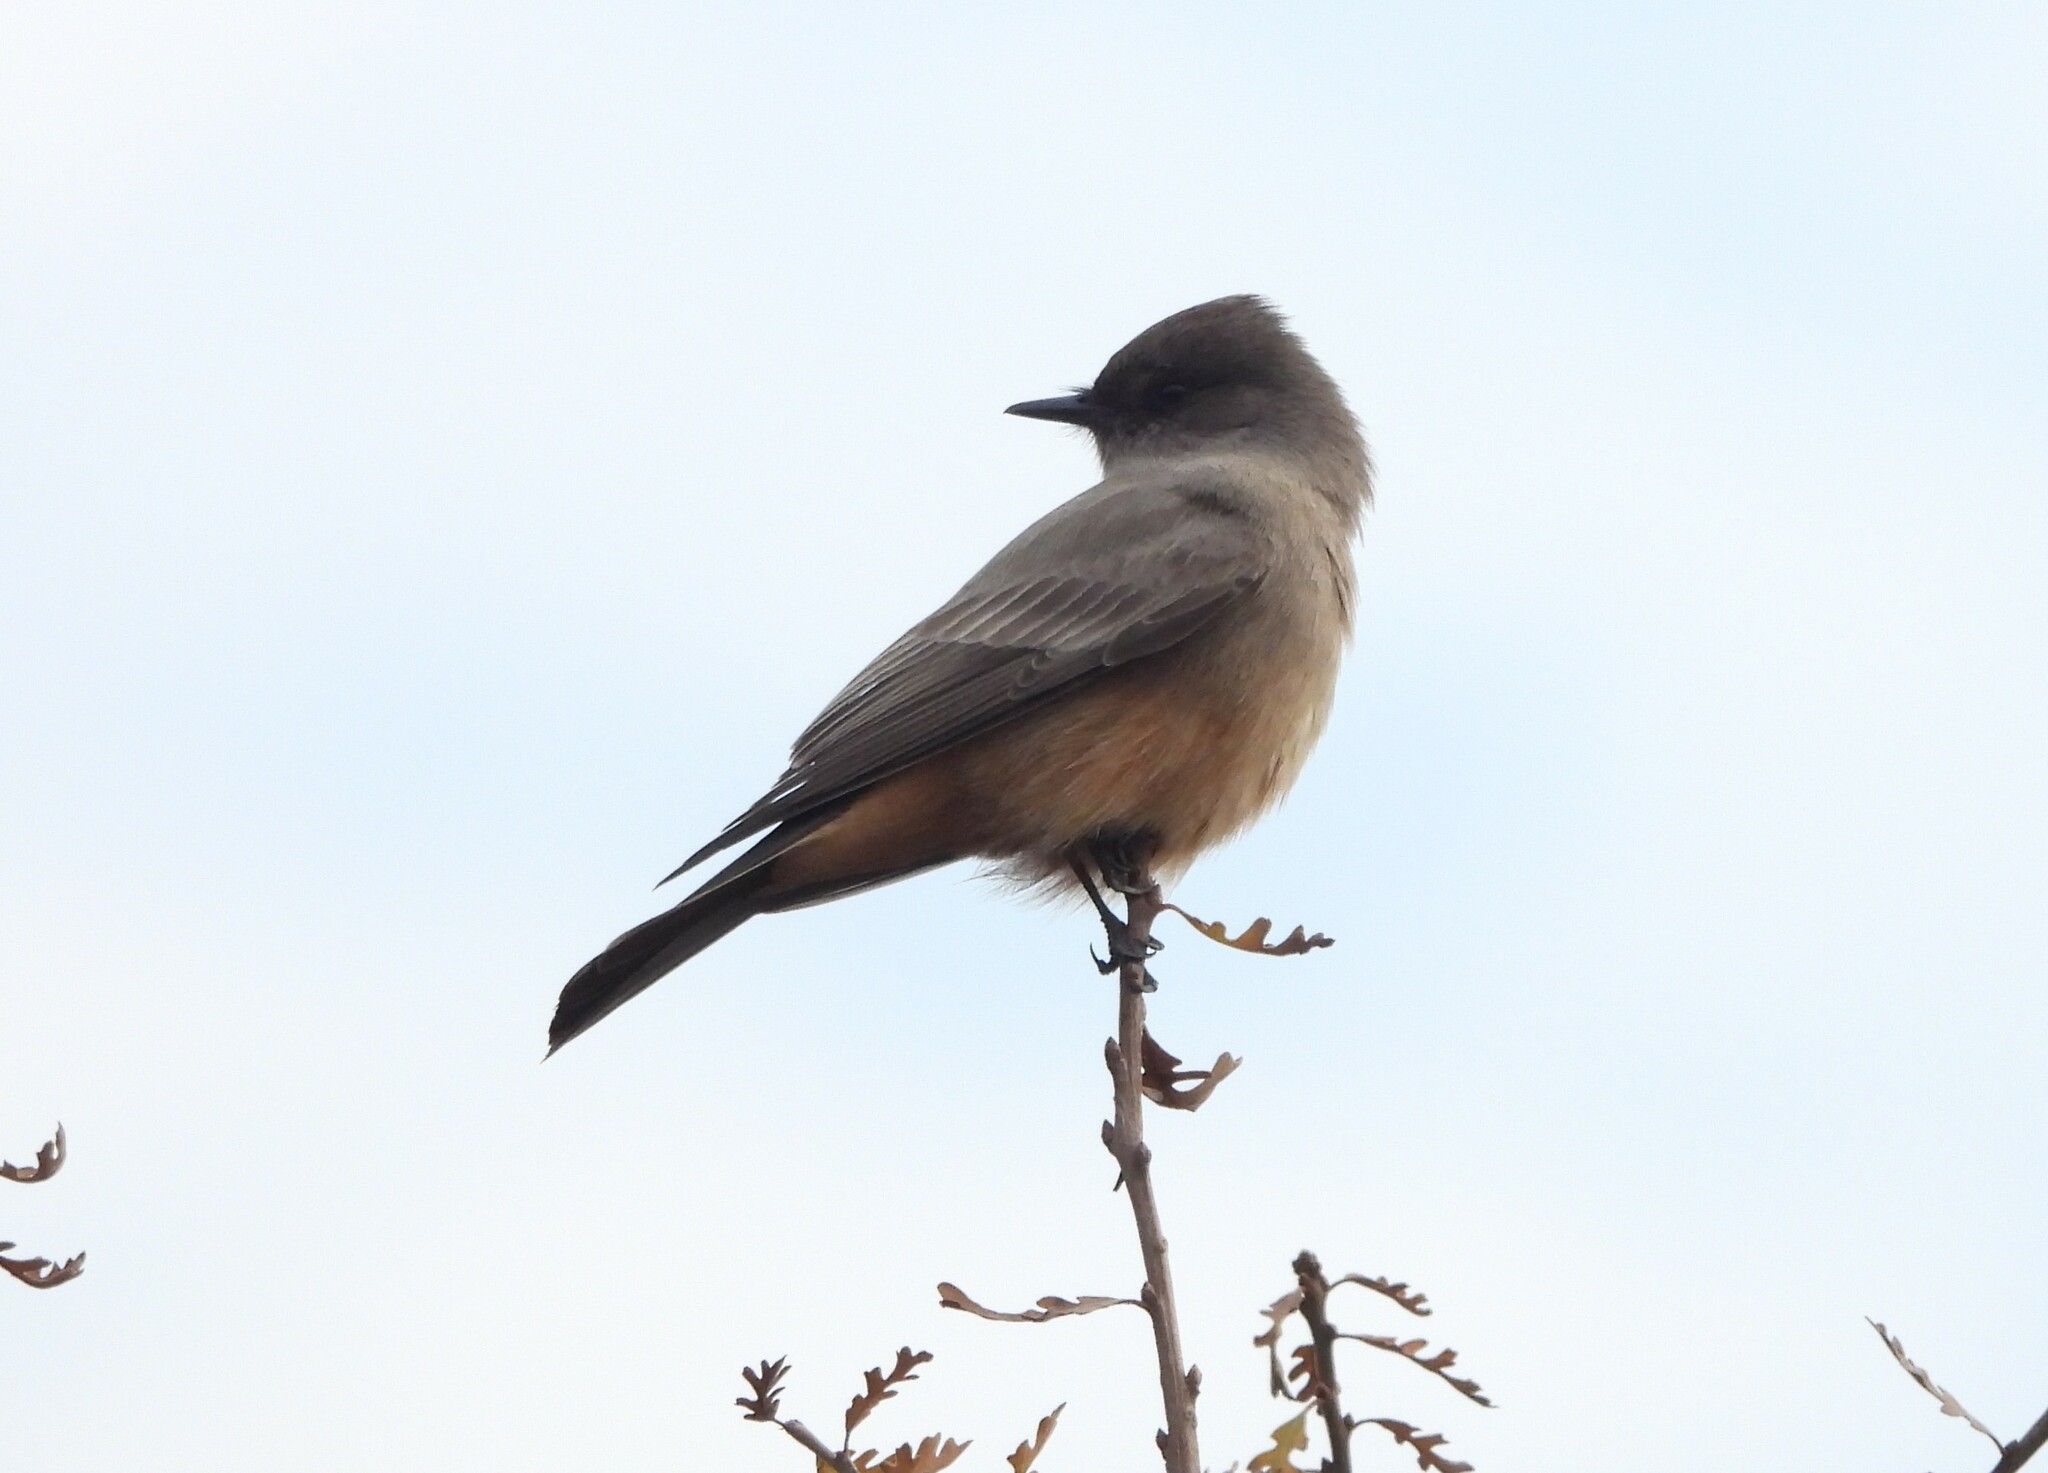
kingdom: Animalia
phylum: Chordata
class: Aves
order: Passeriformes
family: Tyrannidae
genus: Sayornis
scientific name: Sayornis saya
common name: Say's phoebe
